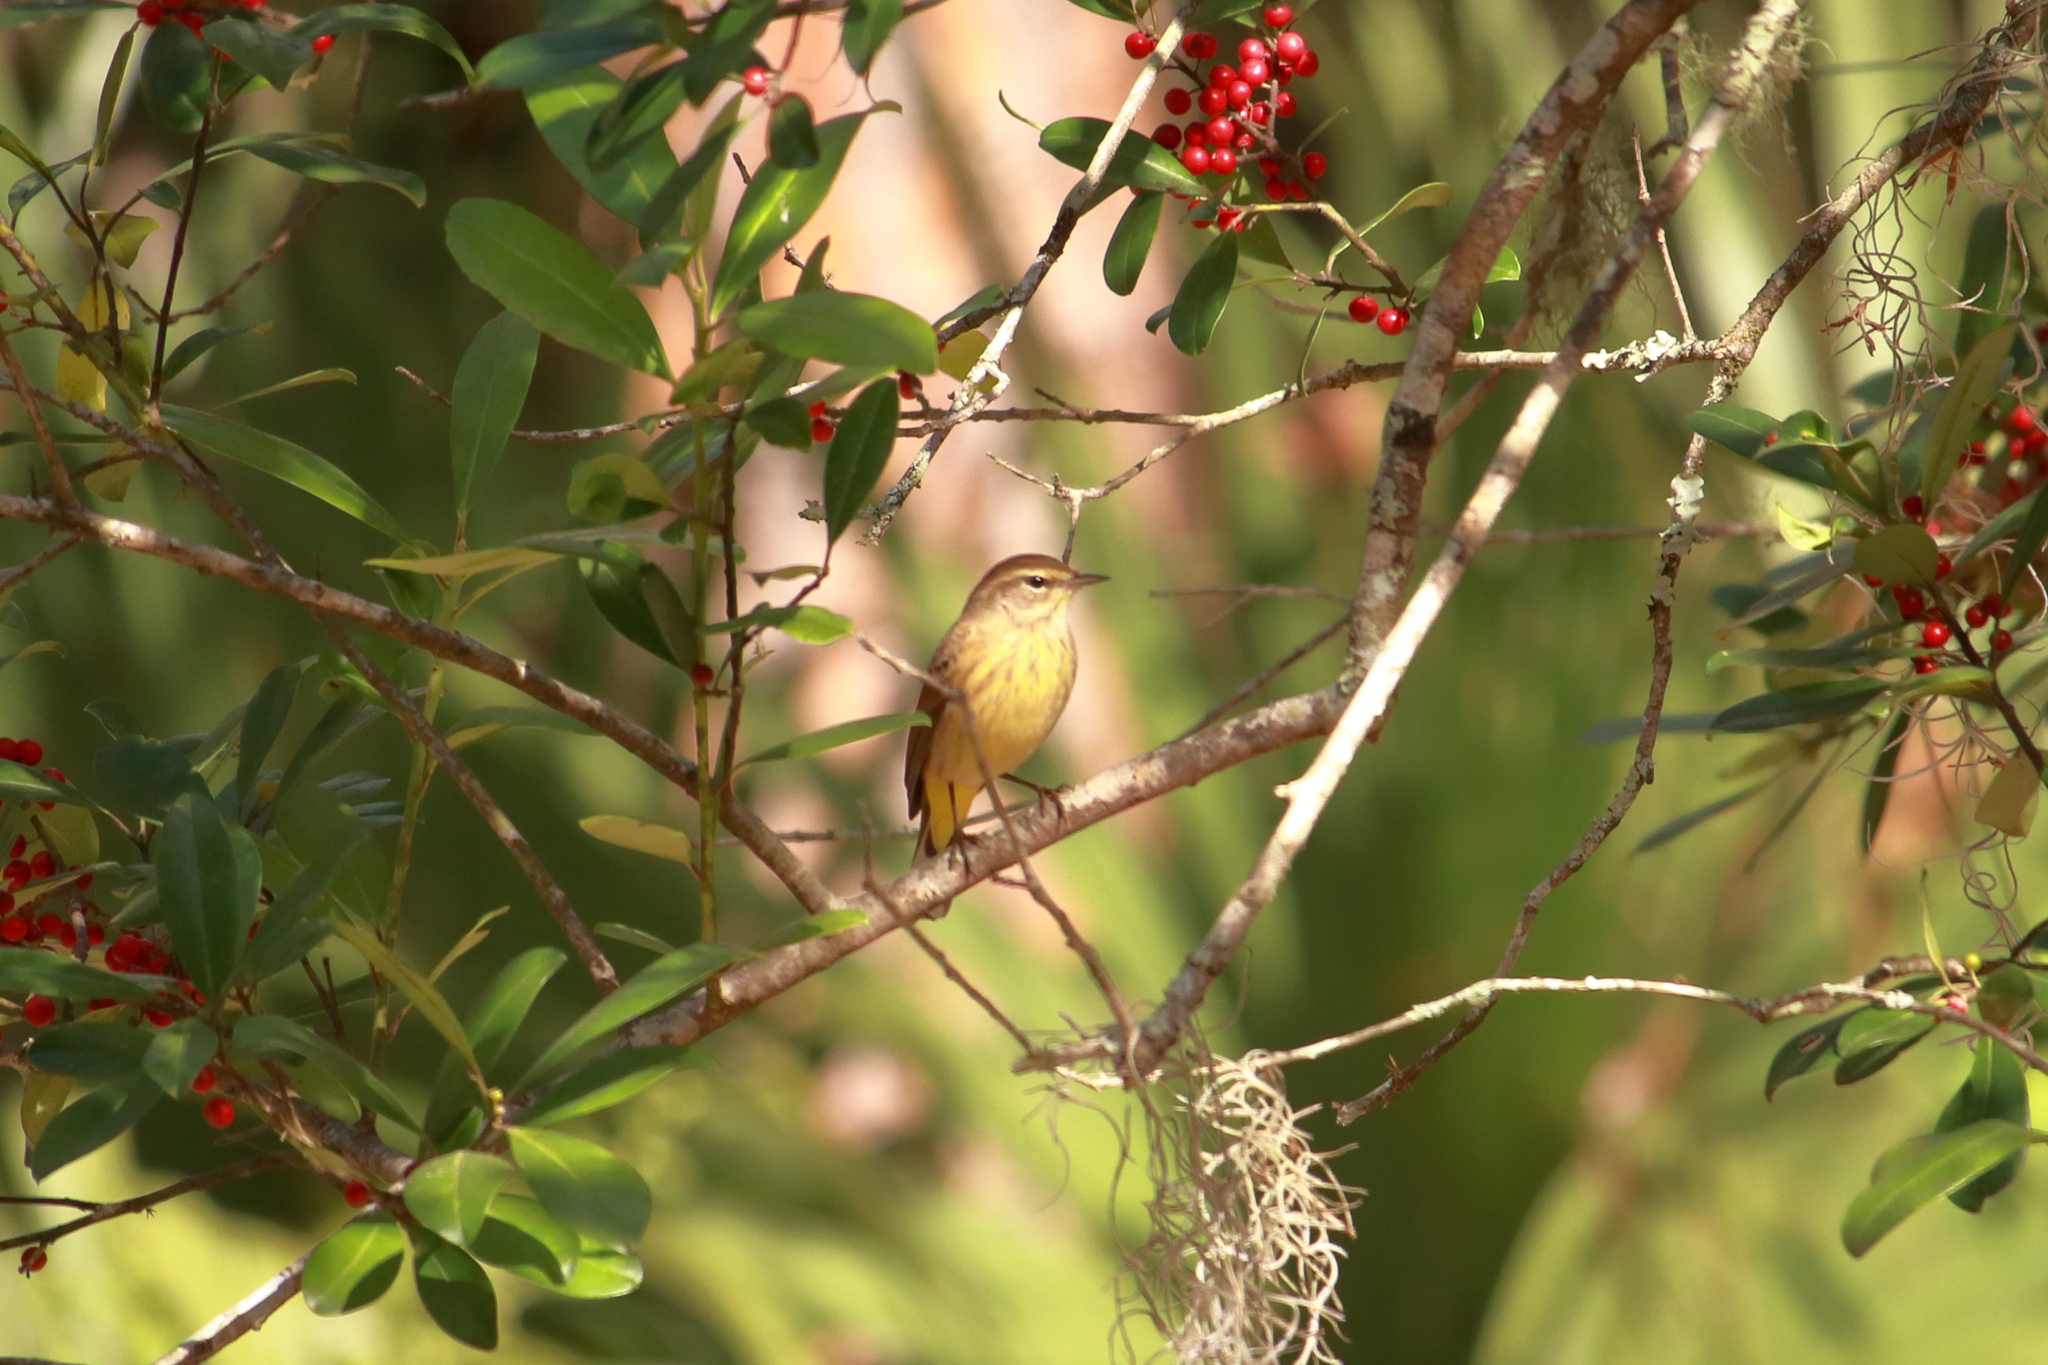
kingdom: Animalia
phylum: Chordata
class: Aves
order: Passeriformes
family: Parulidae
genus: Setophaga
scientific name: Setophaga palmarum
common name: Palm warbler
